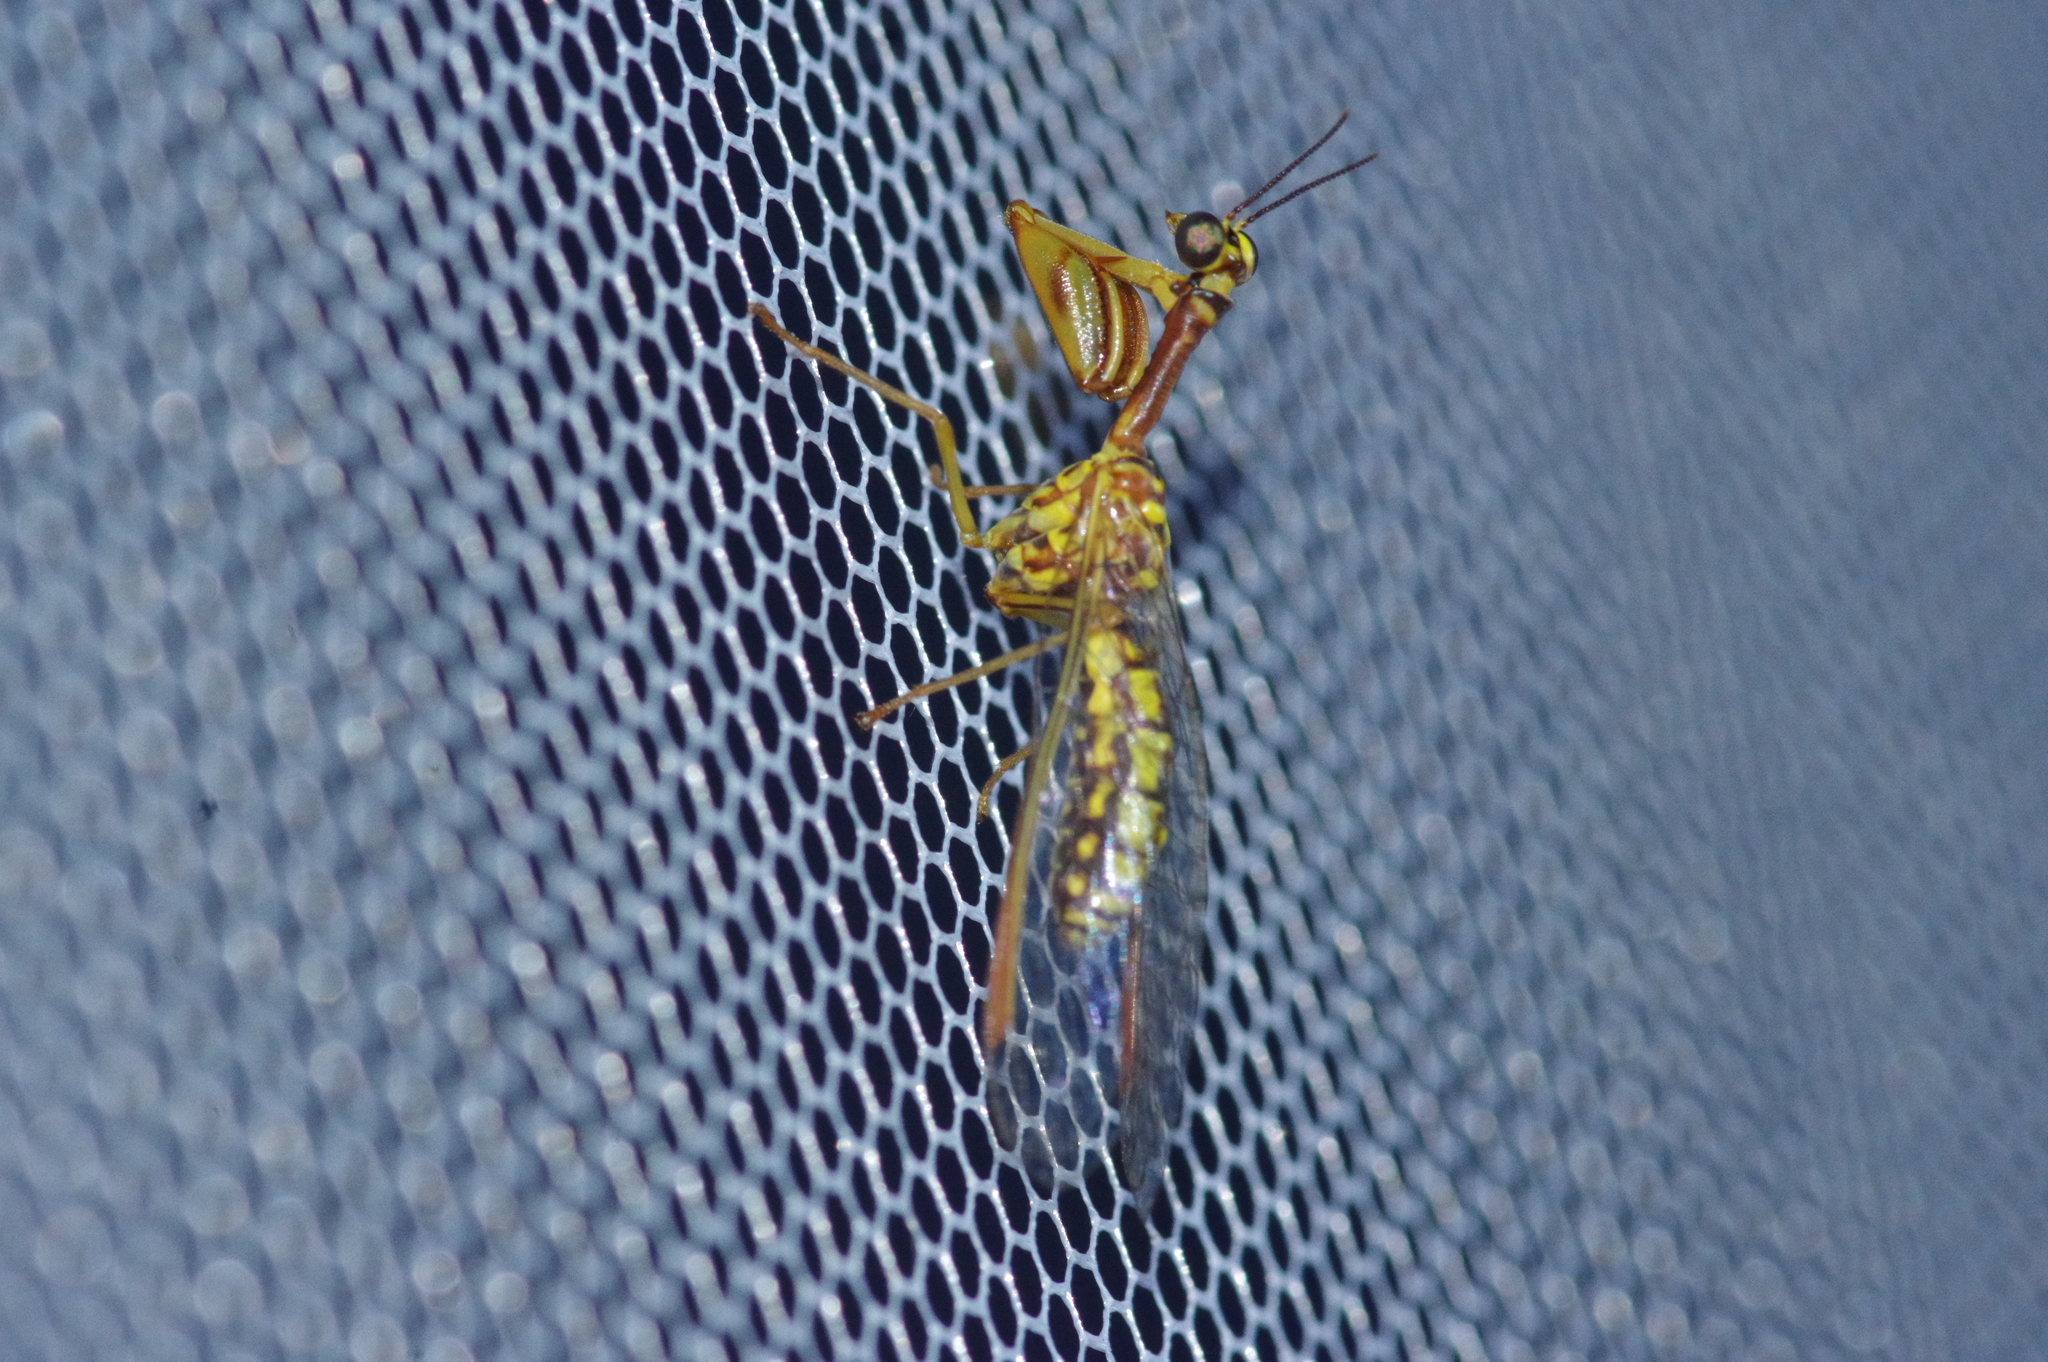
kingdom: Animalia
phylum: Arthropoda
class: Insecta
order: Neuroptera
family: Mantispidae
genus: Mantispa
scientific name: Mantispa japonica
